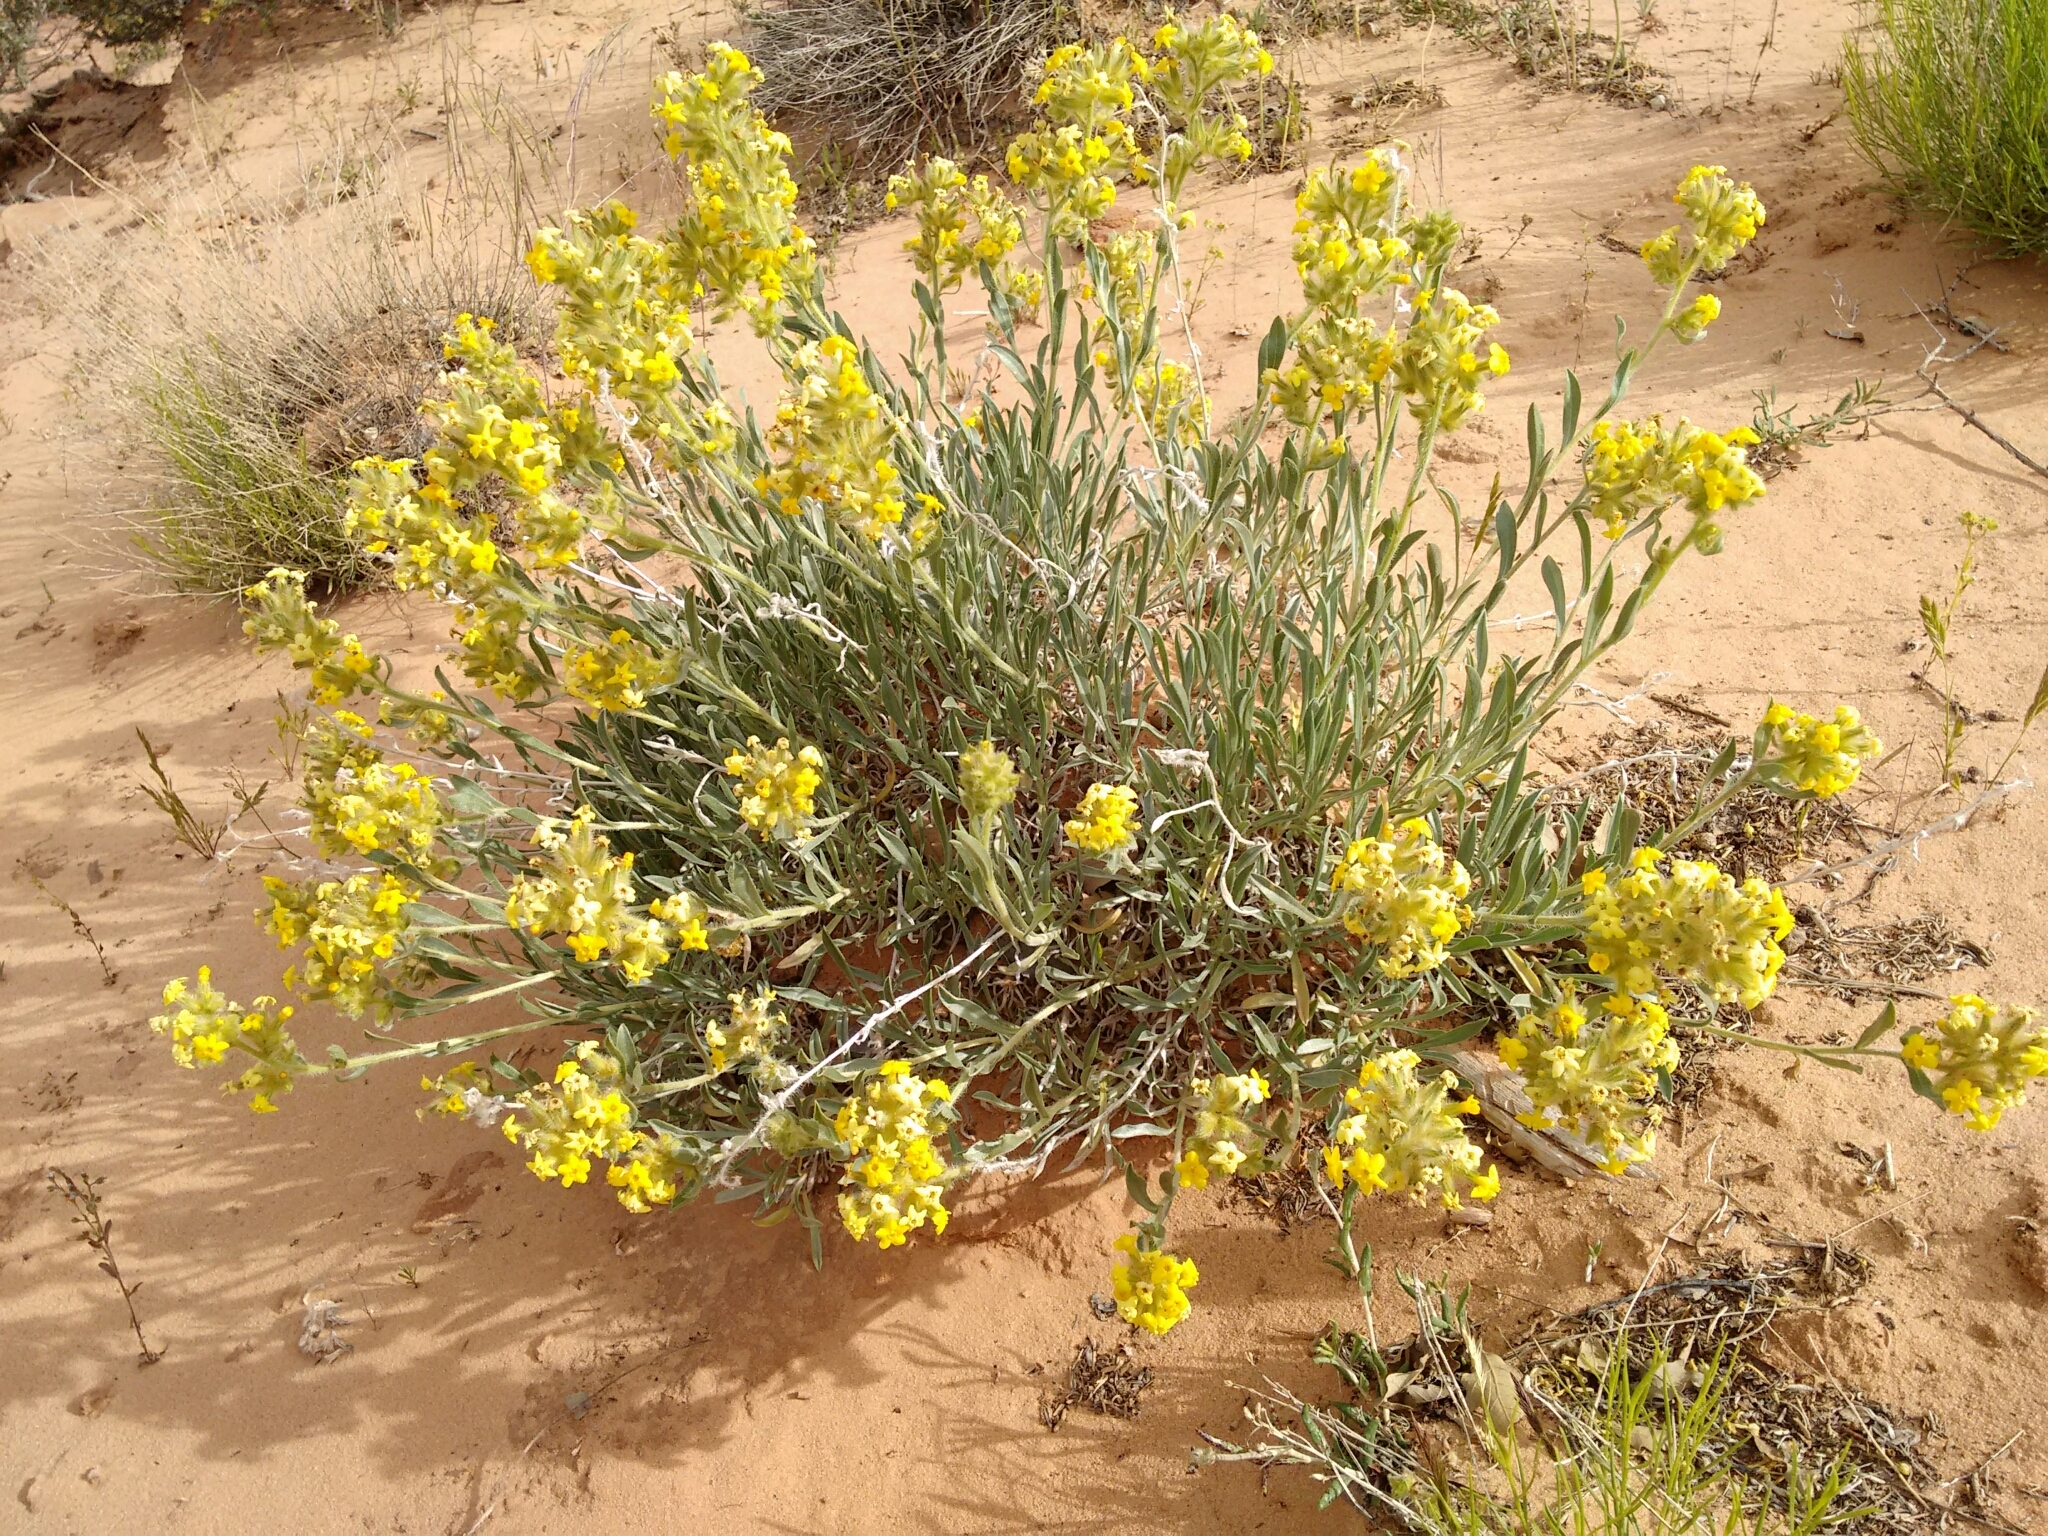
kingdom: Plantae
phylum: Tracheophyta
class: Magnoliopsida
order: Boraginales
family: Boraginaceae
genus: Oreocarya
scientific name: Oreocarya flava
